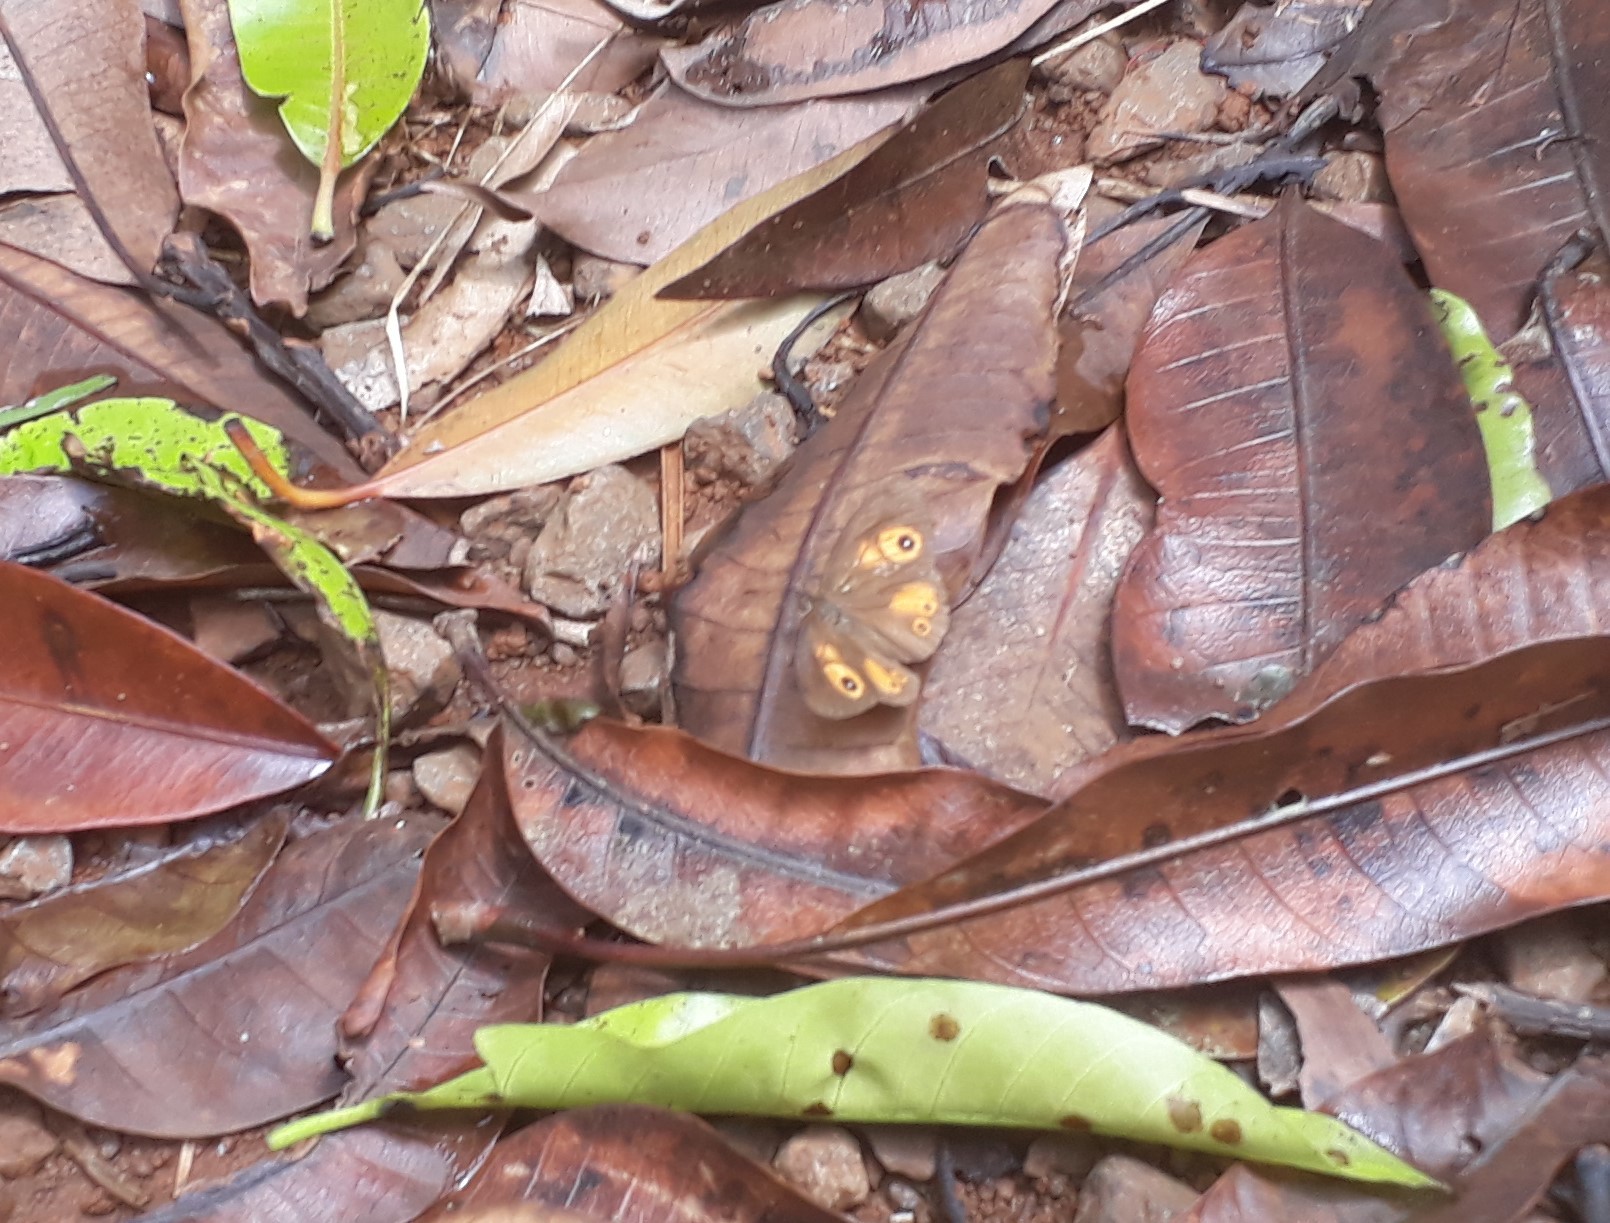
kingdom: Animalia
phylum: Arthropoda
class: Insecta
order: Lepidoptera
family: Nymphalidae
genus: Henotesia
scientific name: Henotesia narcissus
